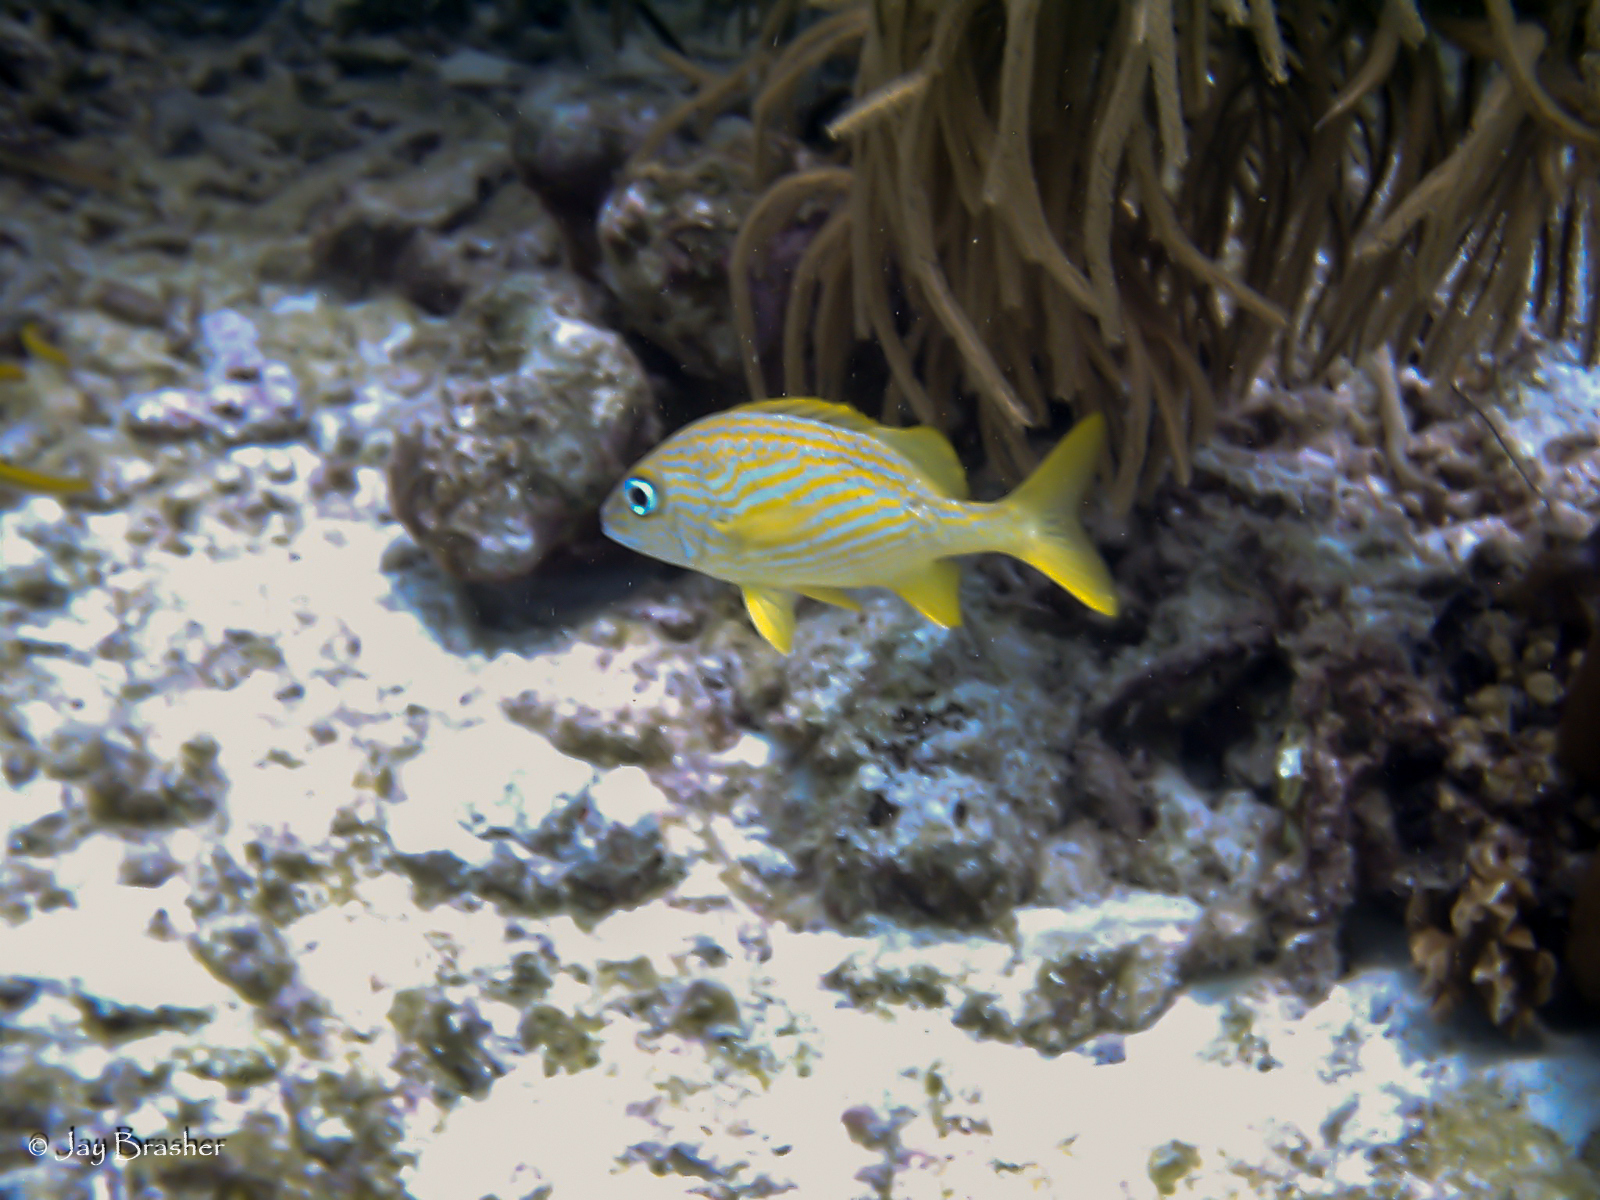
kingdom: Animalia
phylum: Chordata
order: Perciformes
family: Haemulidae
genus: Haemulon
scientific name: Haemulon flavolineatum
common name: French grunt
